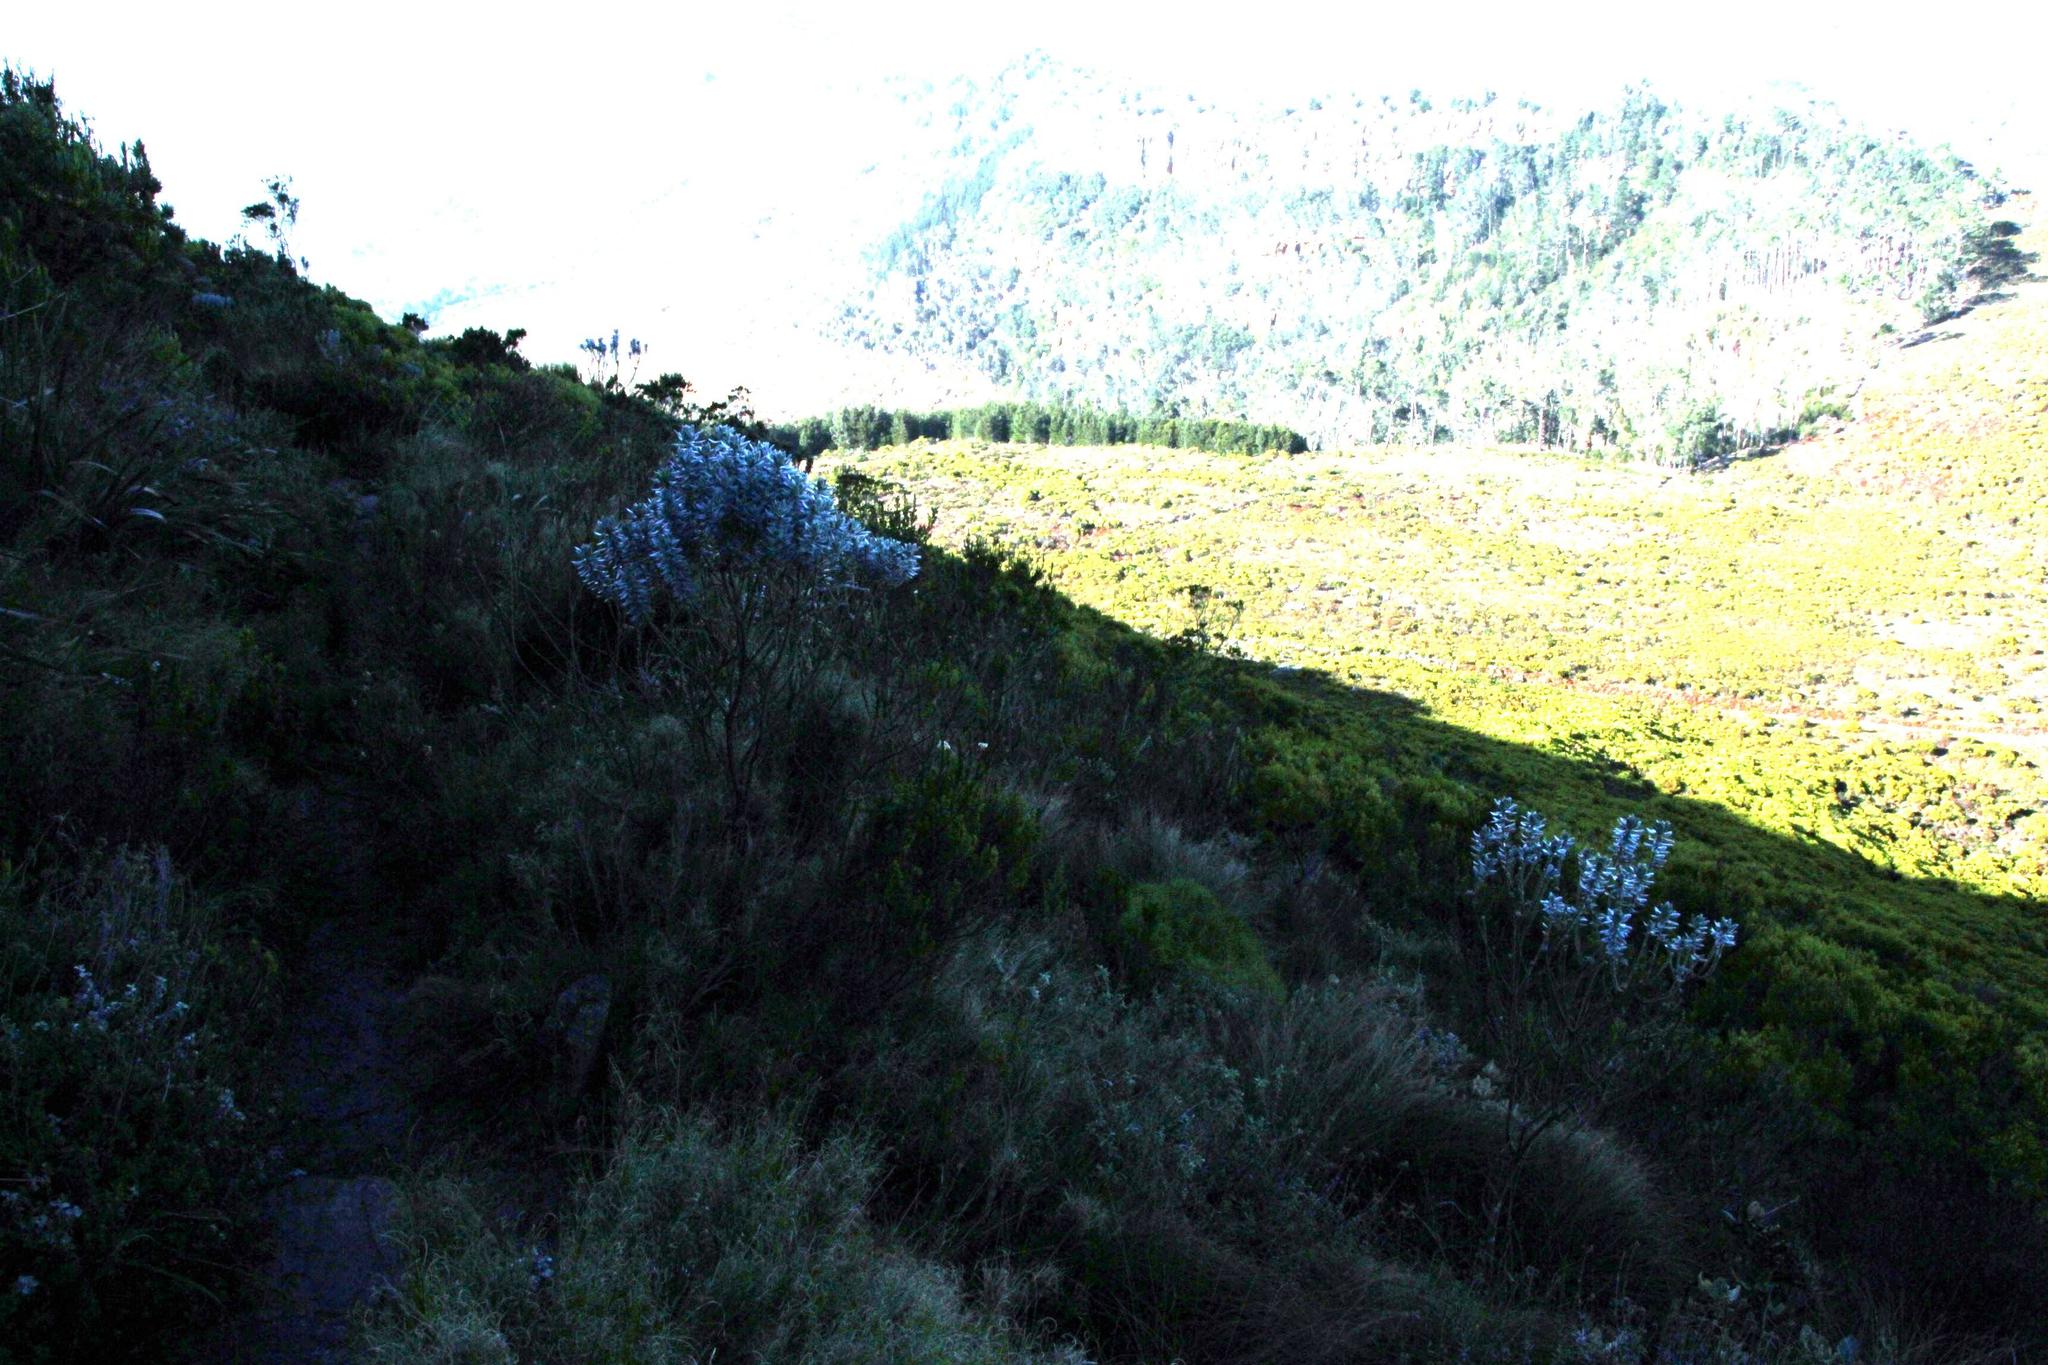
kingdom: Plantae
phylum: Tracheophyta
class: Magnoliopsida
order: Fabales
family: Fabaceae
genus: Xiphotheca
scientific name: Xiphotheca fruticosa
